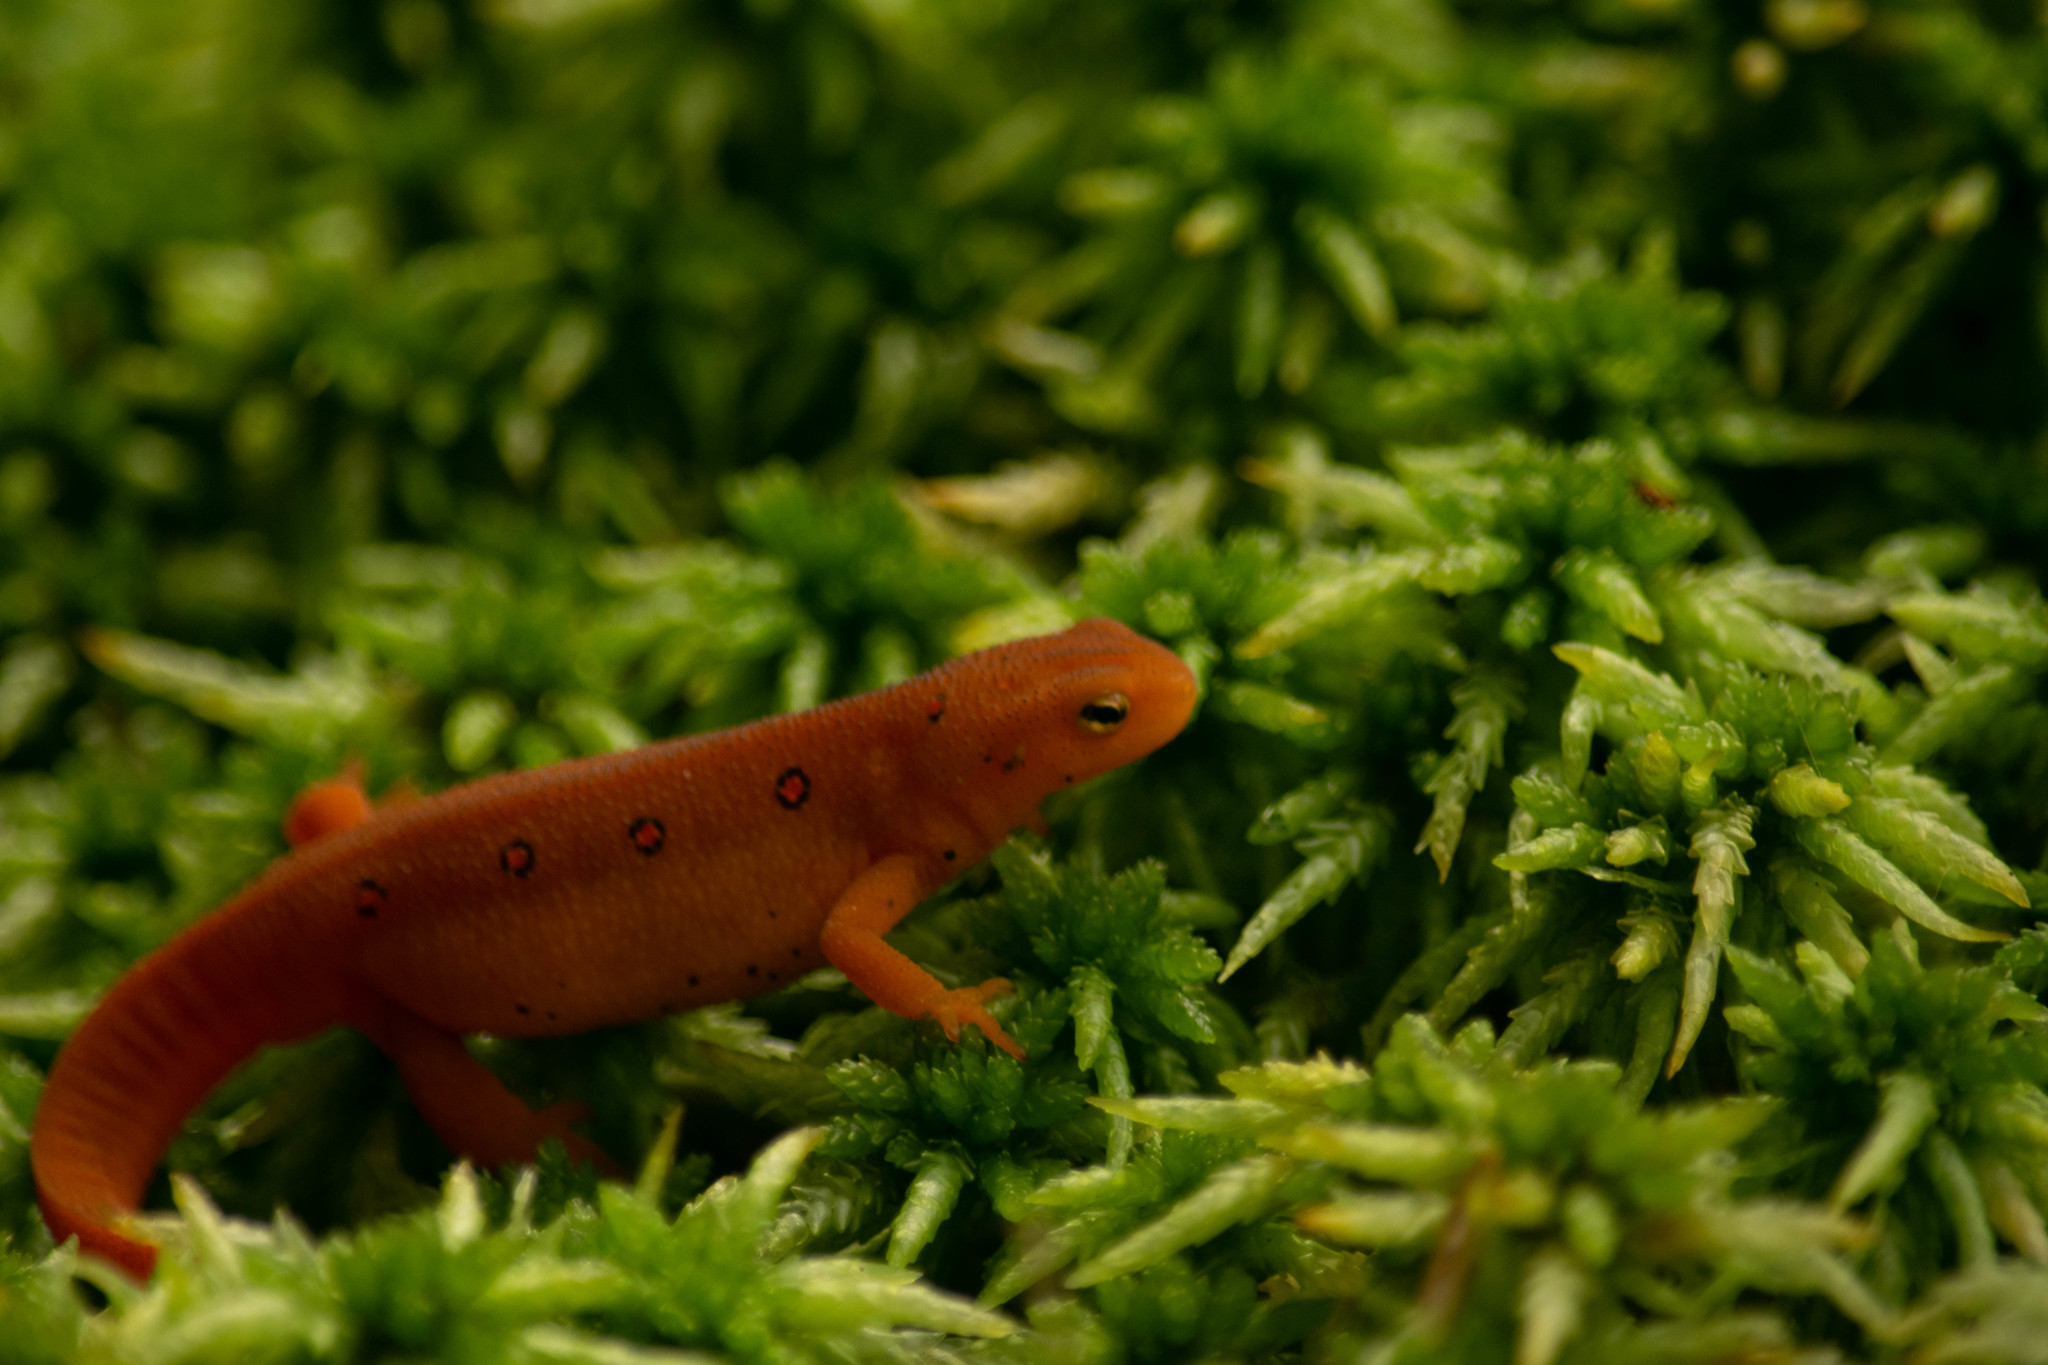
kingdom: Animalia
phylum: Chordata
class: Amphibia
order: Caudata
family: Salamandridae
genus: Notophthalmus
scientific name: Notophthalmus viridescens
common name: Eastern newt
